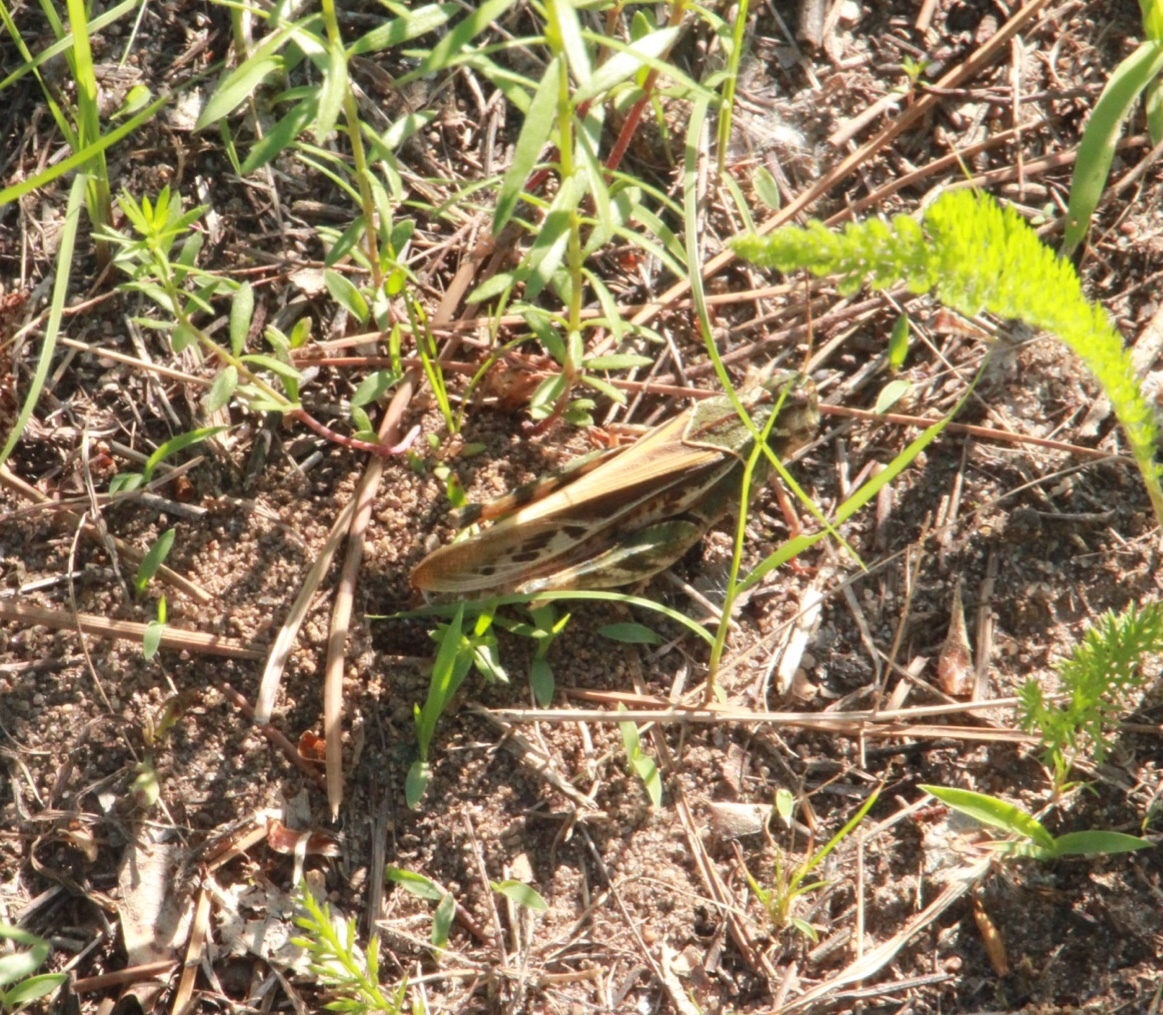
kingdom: Animalia
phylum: Arthropoda
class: Insecta
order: Orthoptera
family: Acrididae
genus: Pardalophora
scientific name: Pardalophora apiculata
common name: Coral-winged locust
